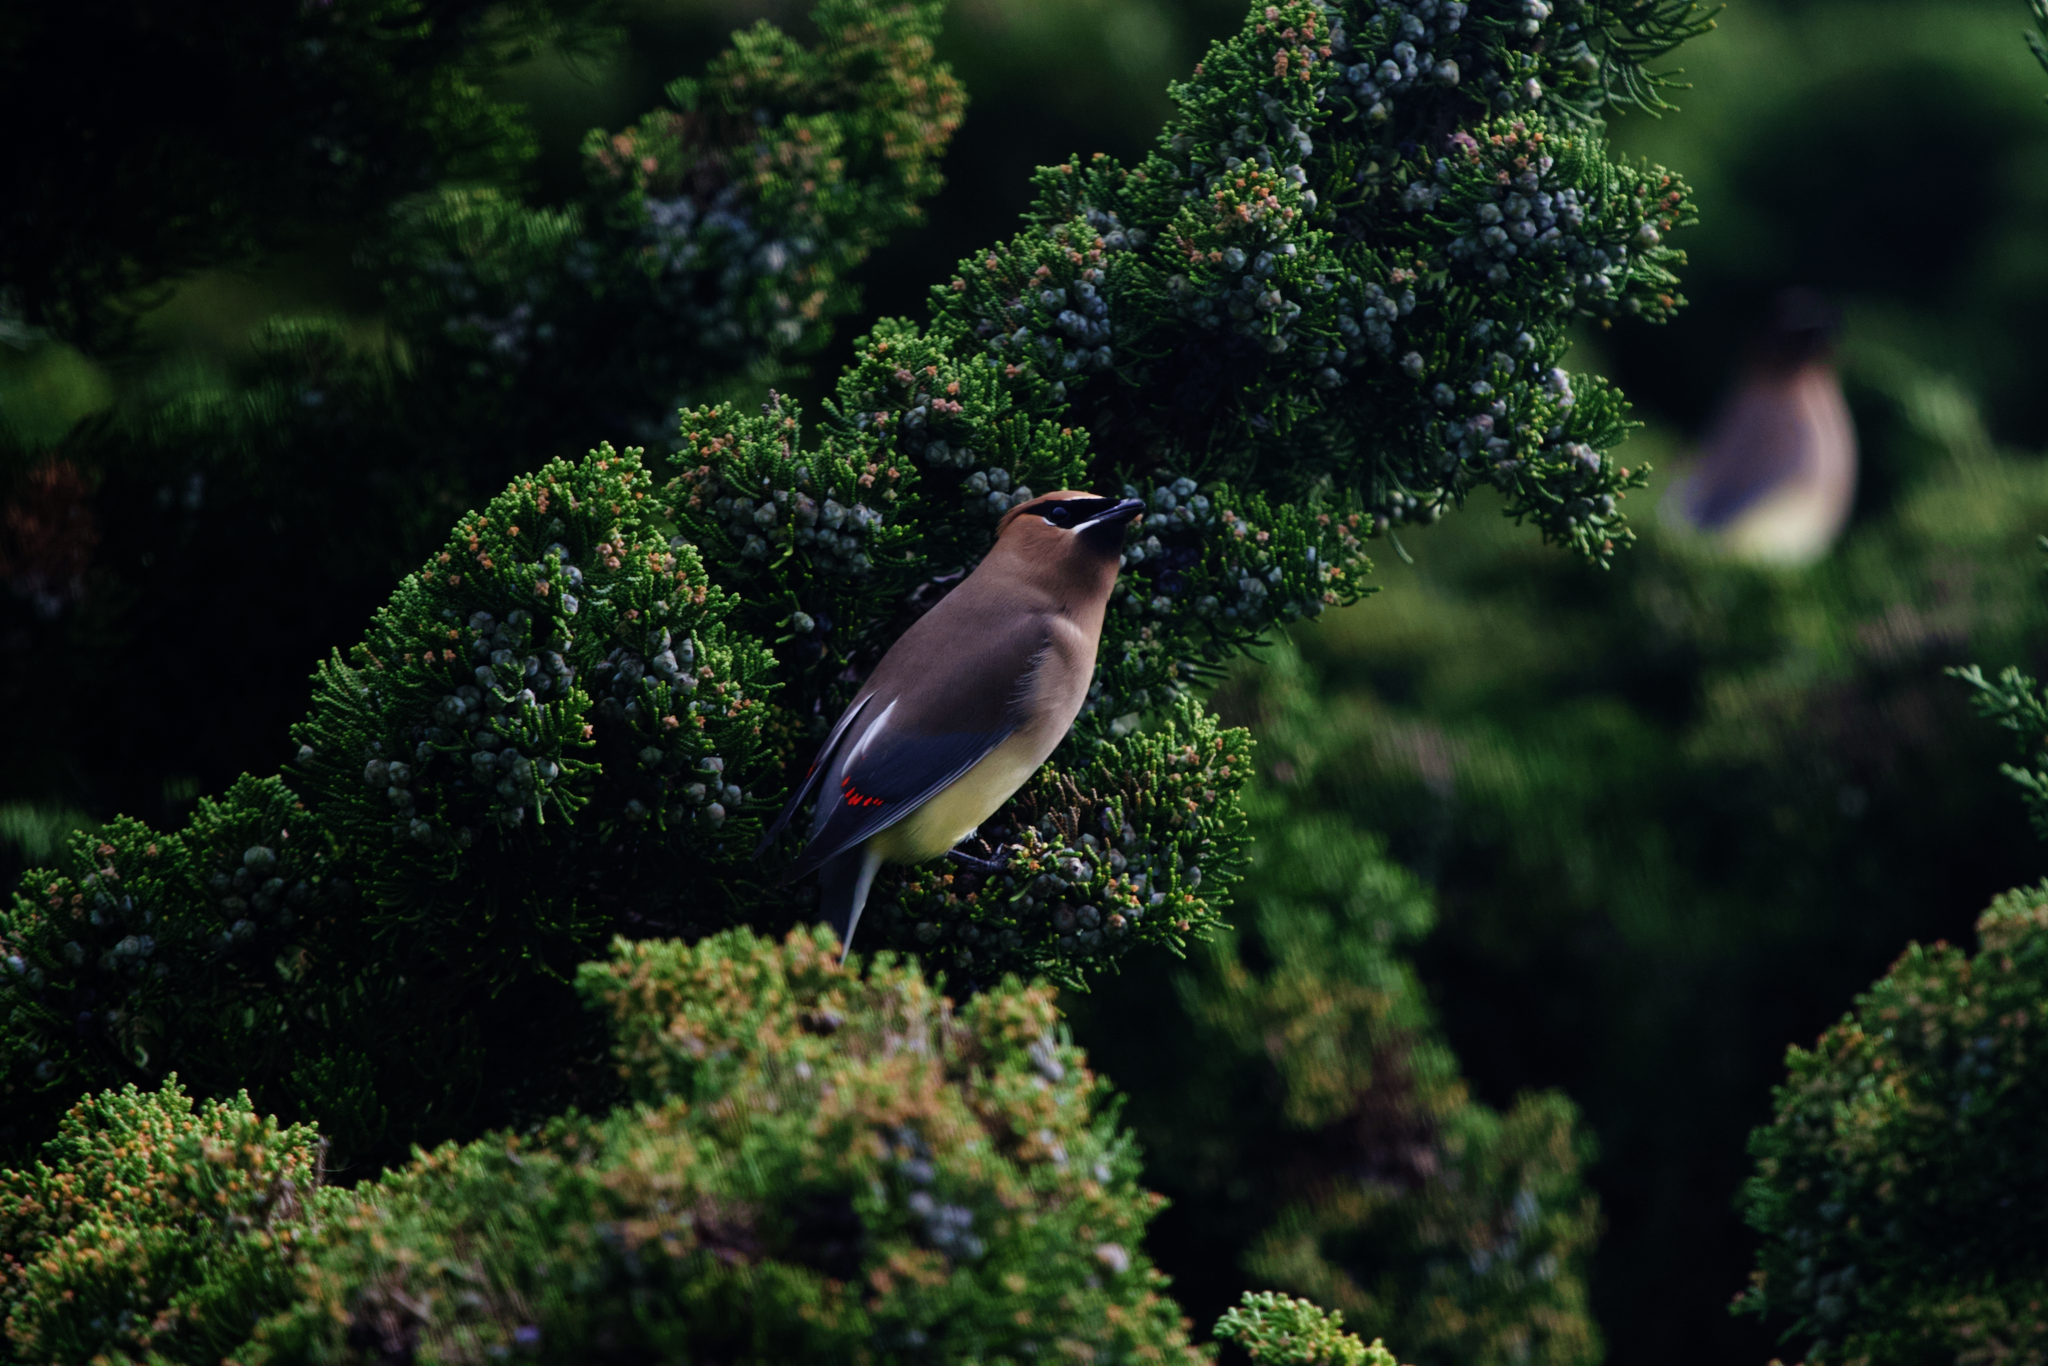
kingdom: Animalia
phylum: Chordata
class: Aves
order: Passeriformes
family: Bombycillidae
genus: Bombycilla
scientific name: Bombycilla cedrorum
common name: Cedar waxwing
